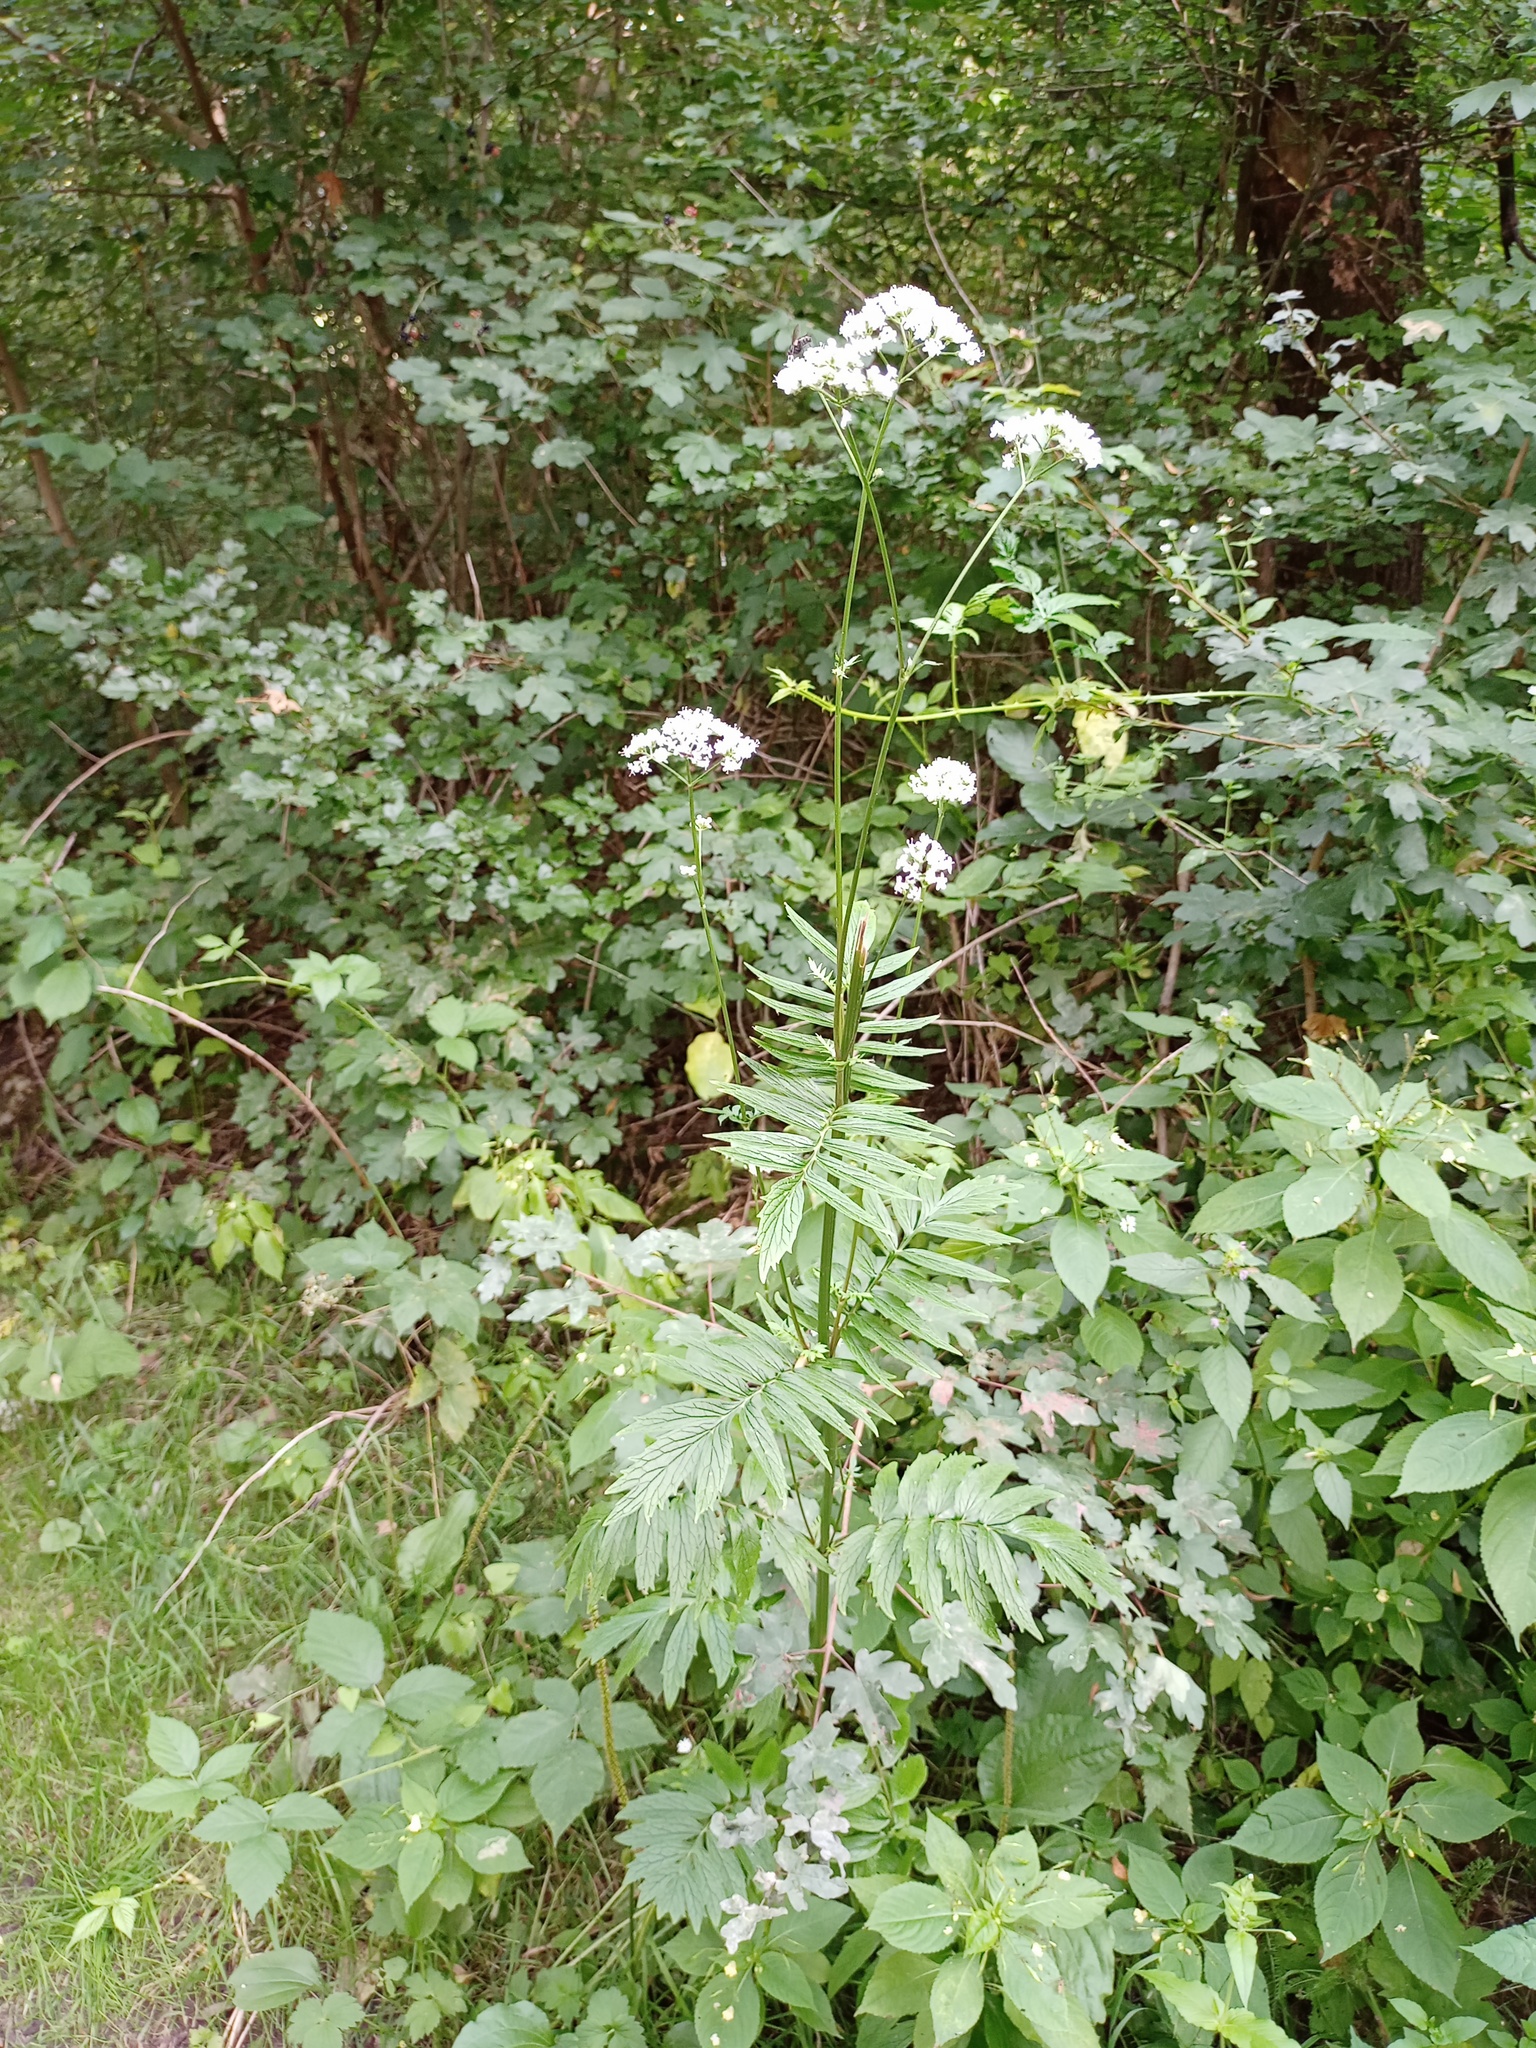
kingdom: Plantae
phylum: Tracheophyta
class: Magnoliopsida
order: Dipsacales
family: Caprifoliaceae
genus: Valeriana
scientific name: Valeriana officinalis
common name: Common valerian
